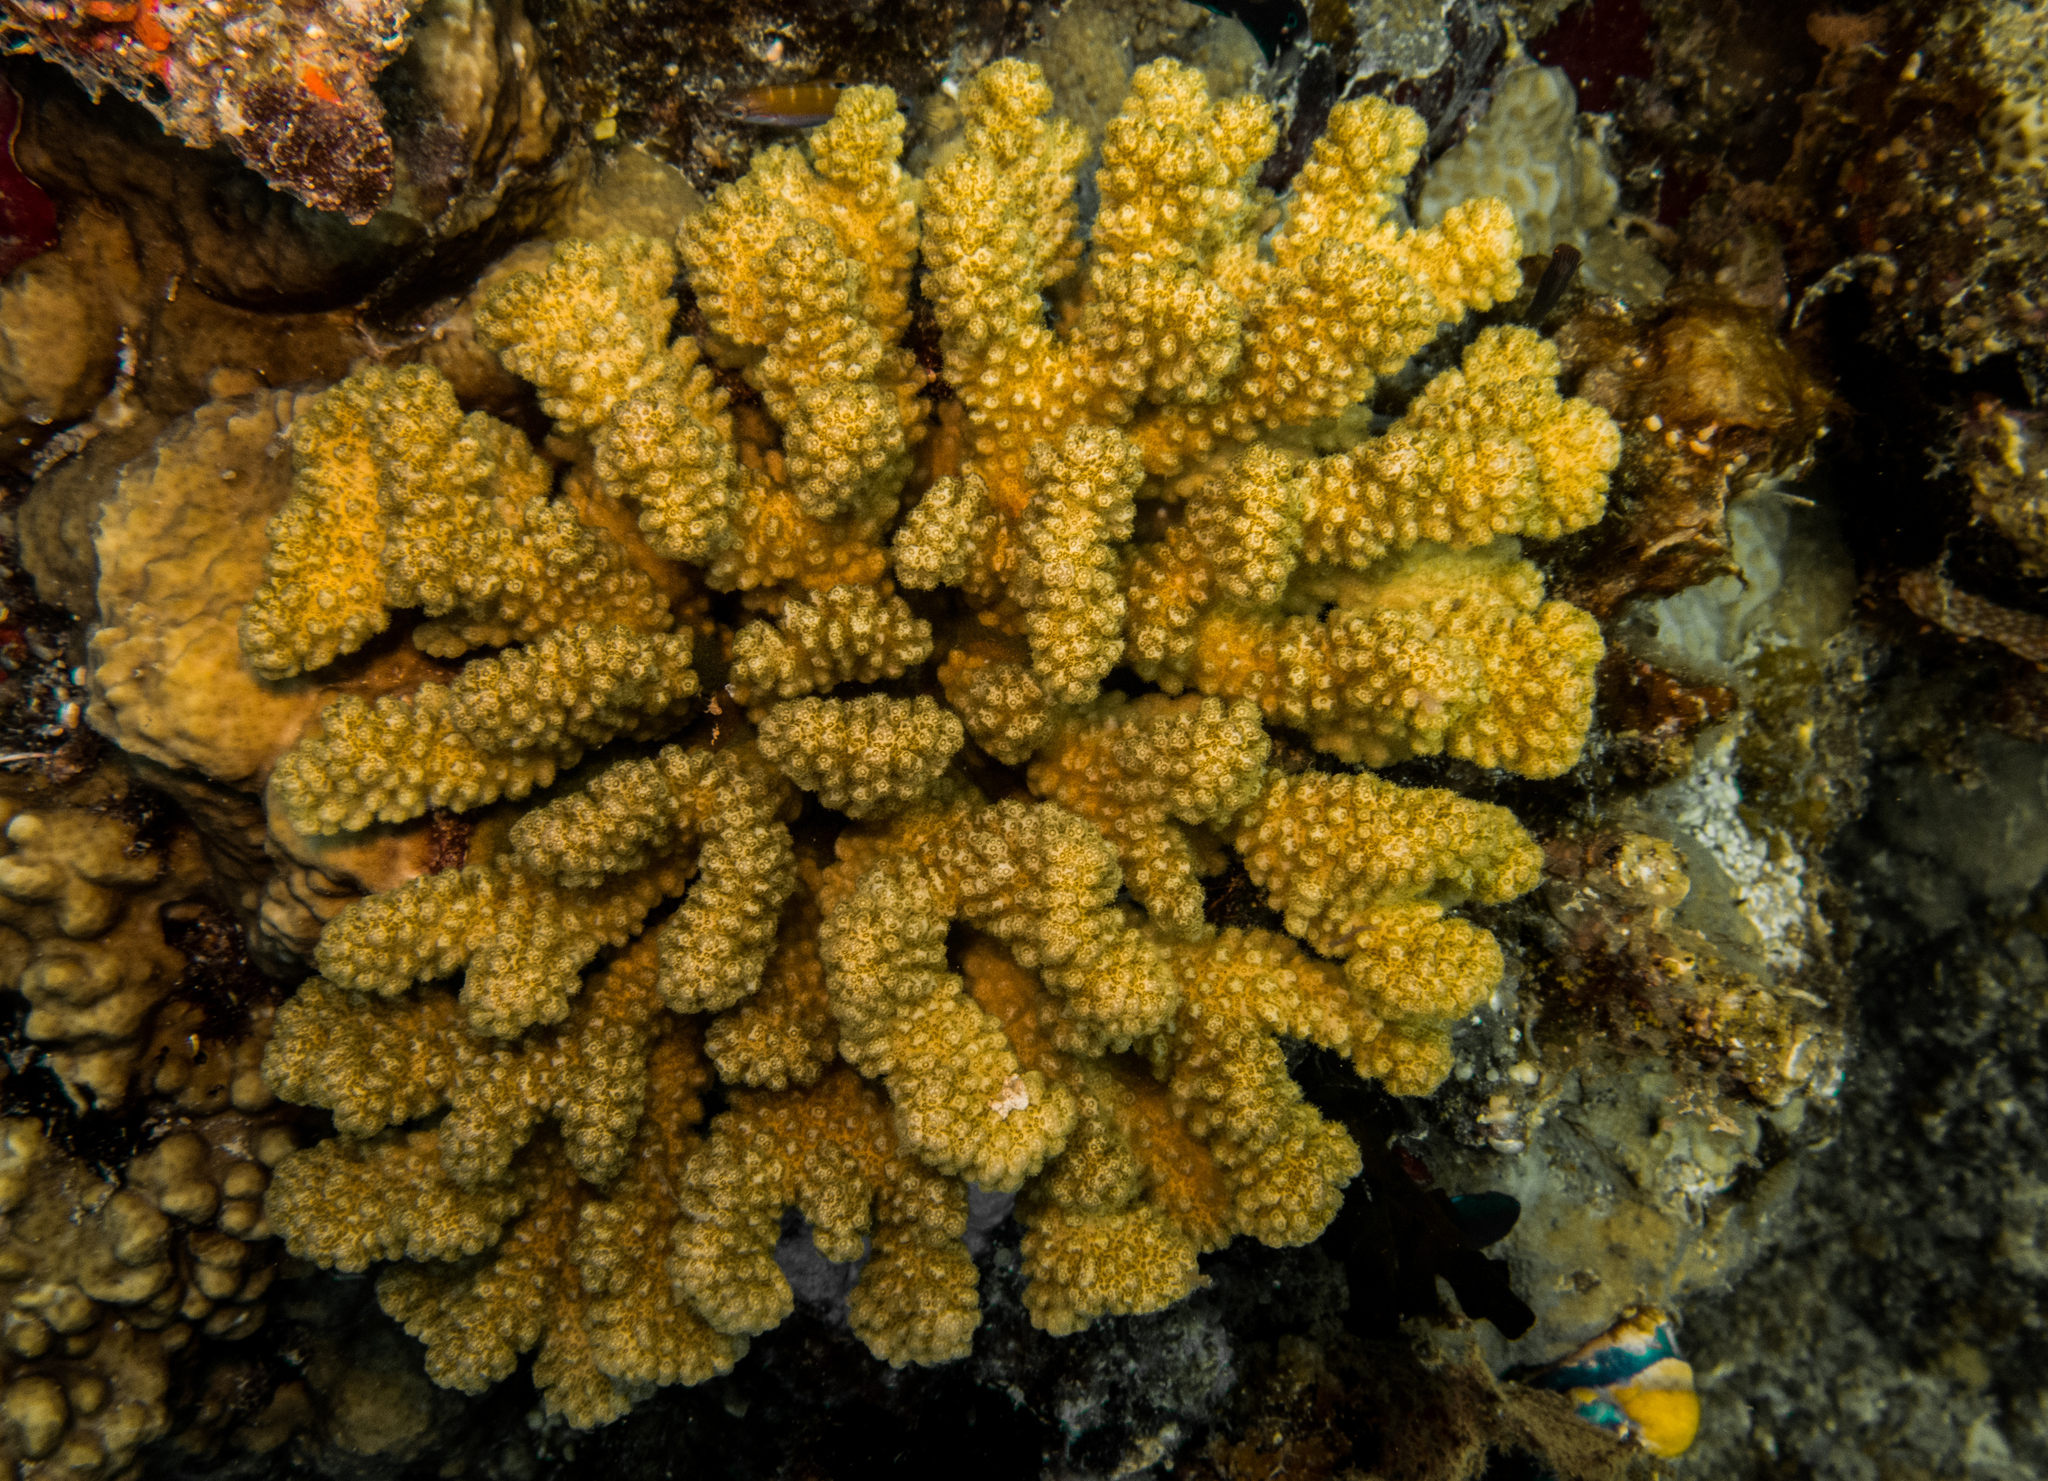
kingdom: Animalia
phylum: Cnidaria
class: Anthozoa
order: Scleractinia
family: Pocilloporidae
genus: Pocillopora
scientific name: Pocillopora verrucosa
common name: Cauliflower coral
